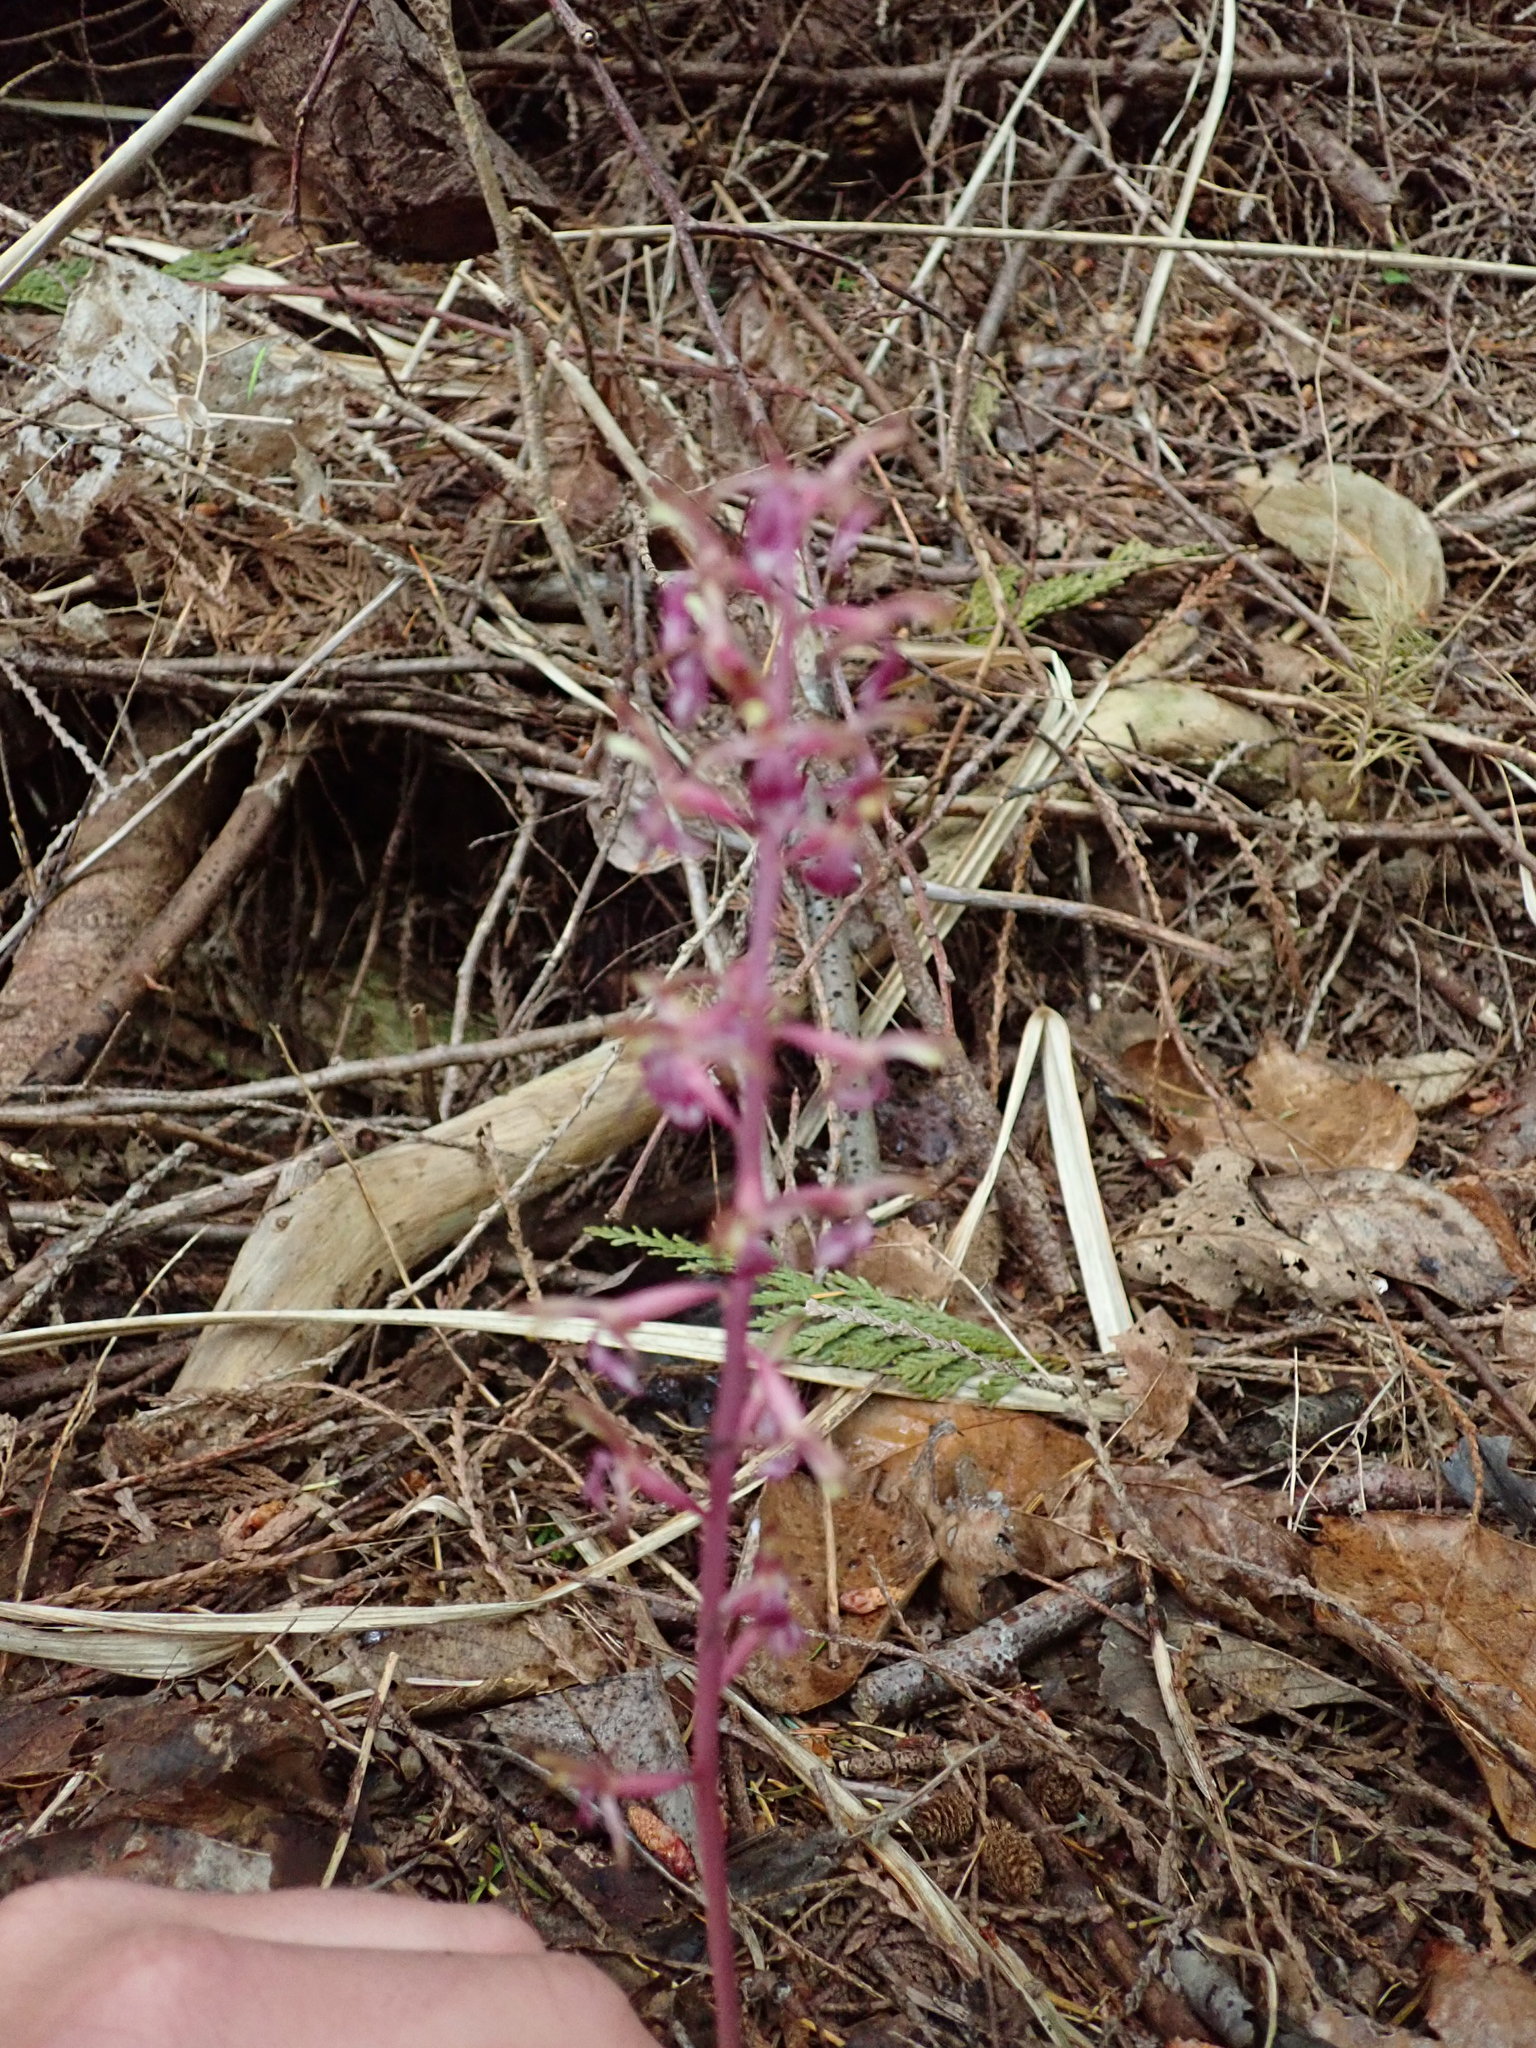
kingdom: Plantae
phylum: Tracheophyta
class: Liliopsida
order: Asparagales
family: Orchidaceae
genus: Corallorhiza
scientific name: Corallorhiza mertensiana
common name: Pacific coralroot
